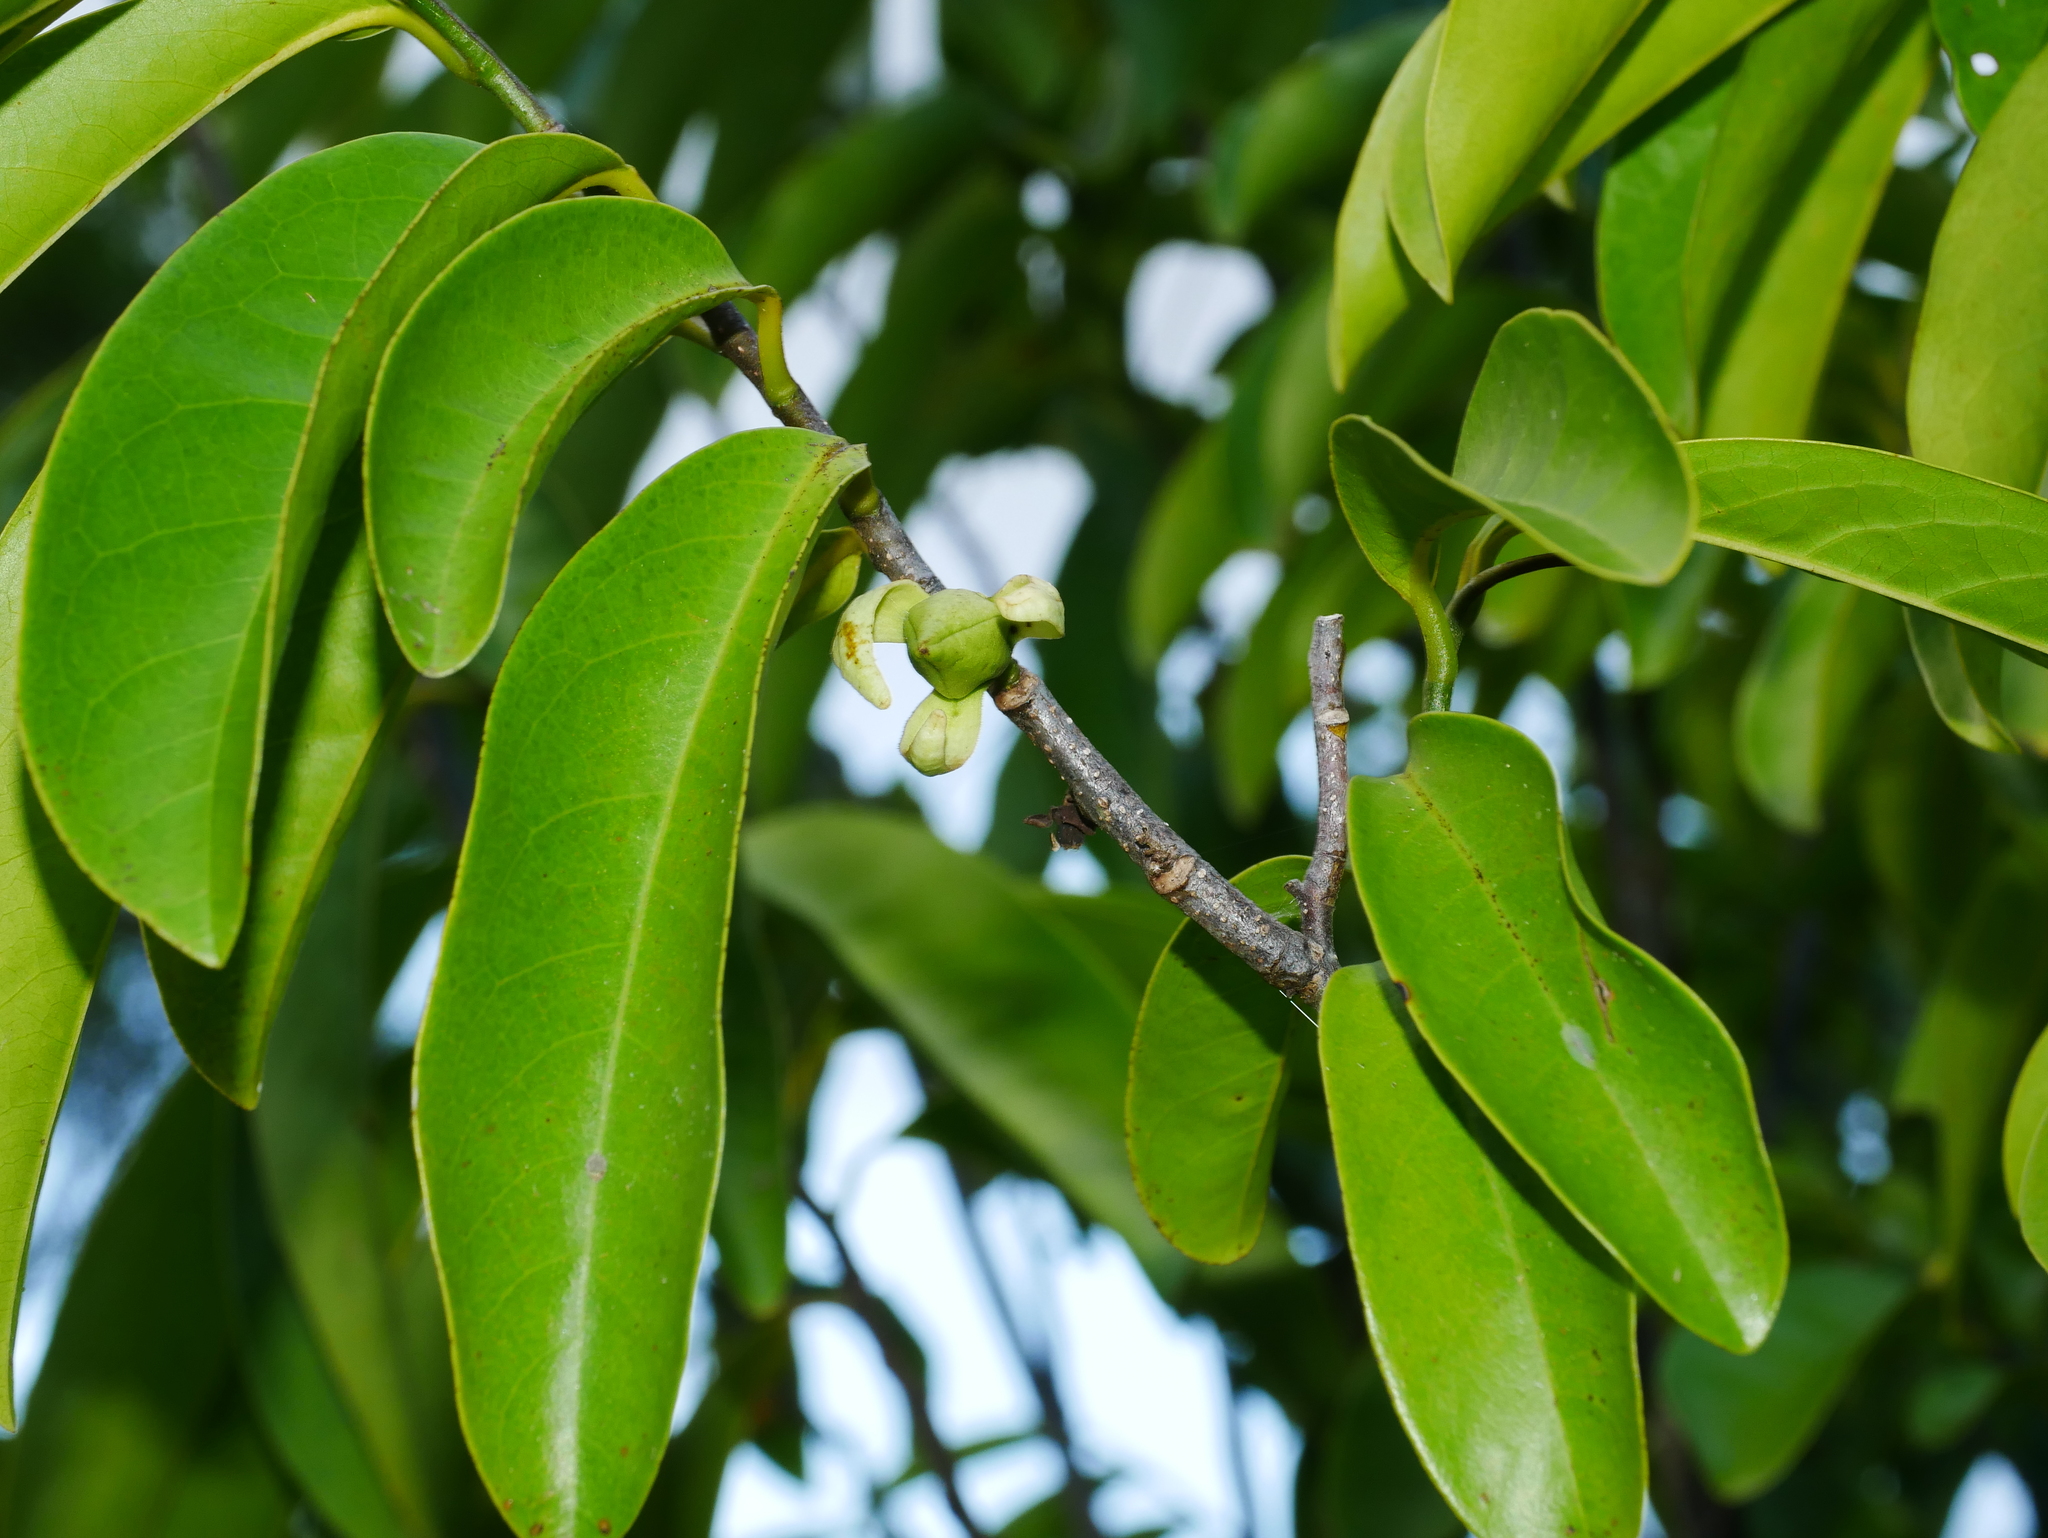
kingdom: Plantae
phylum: Tracheophyta
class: Magnoliopsida
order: Magnoliales
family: Annonaceae
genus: Goniothalamus
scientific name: Goniothalamus amuyon
